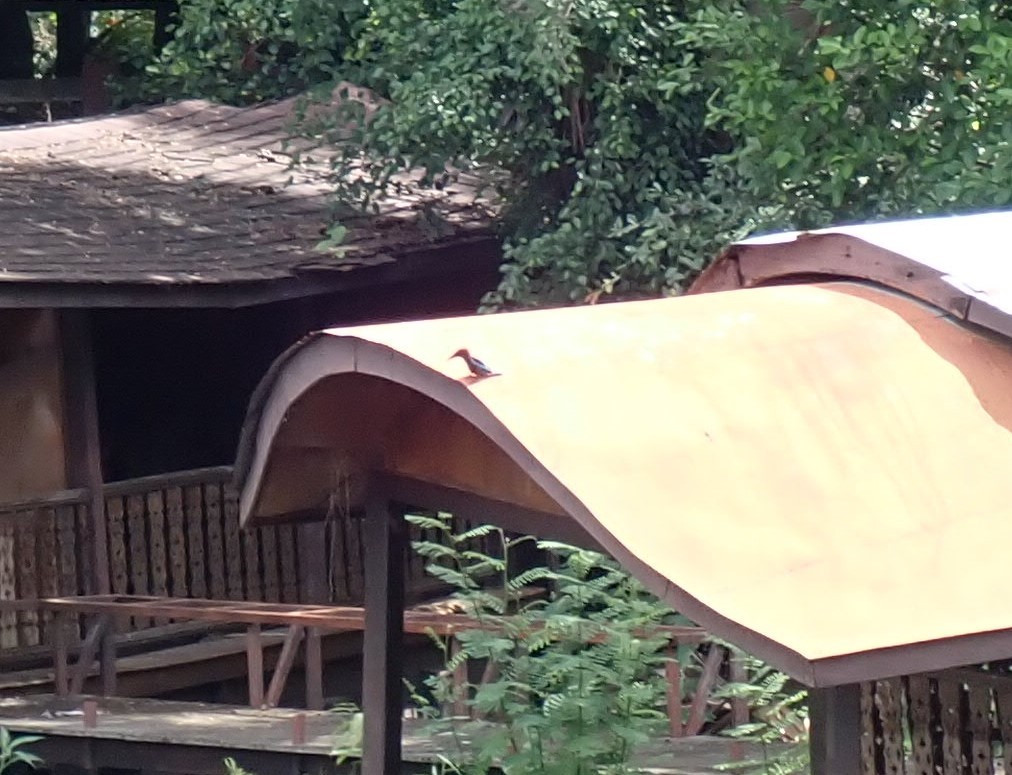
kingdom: Animalia
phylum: Chordata
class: Aves
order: Coraciiformes
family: Alcedinidae
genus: Halcyon
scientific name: Halcyon smyrnensis
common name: White-throated kingfisher
